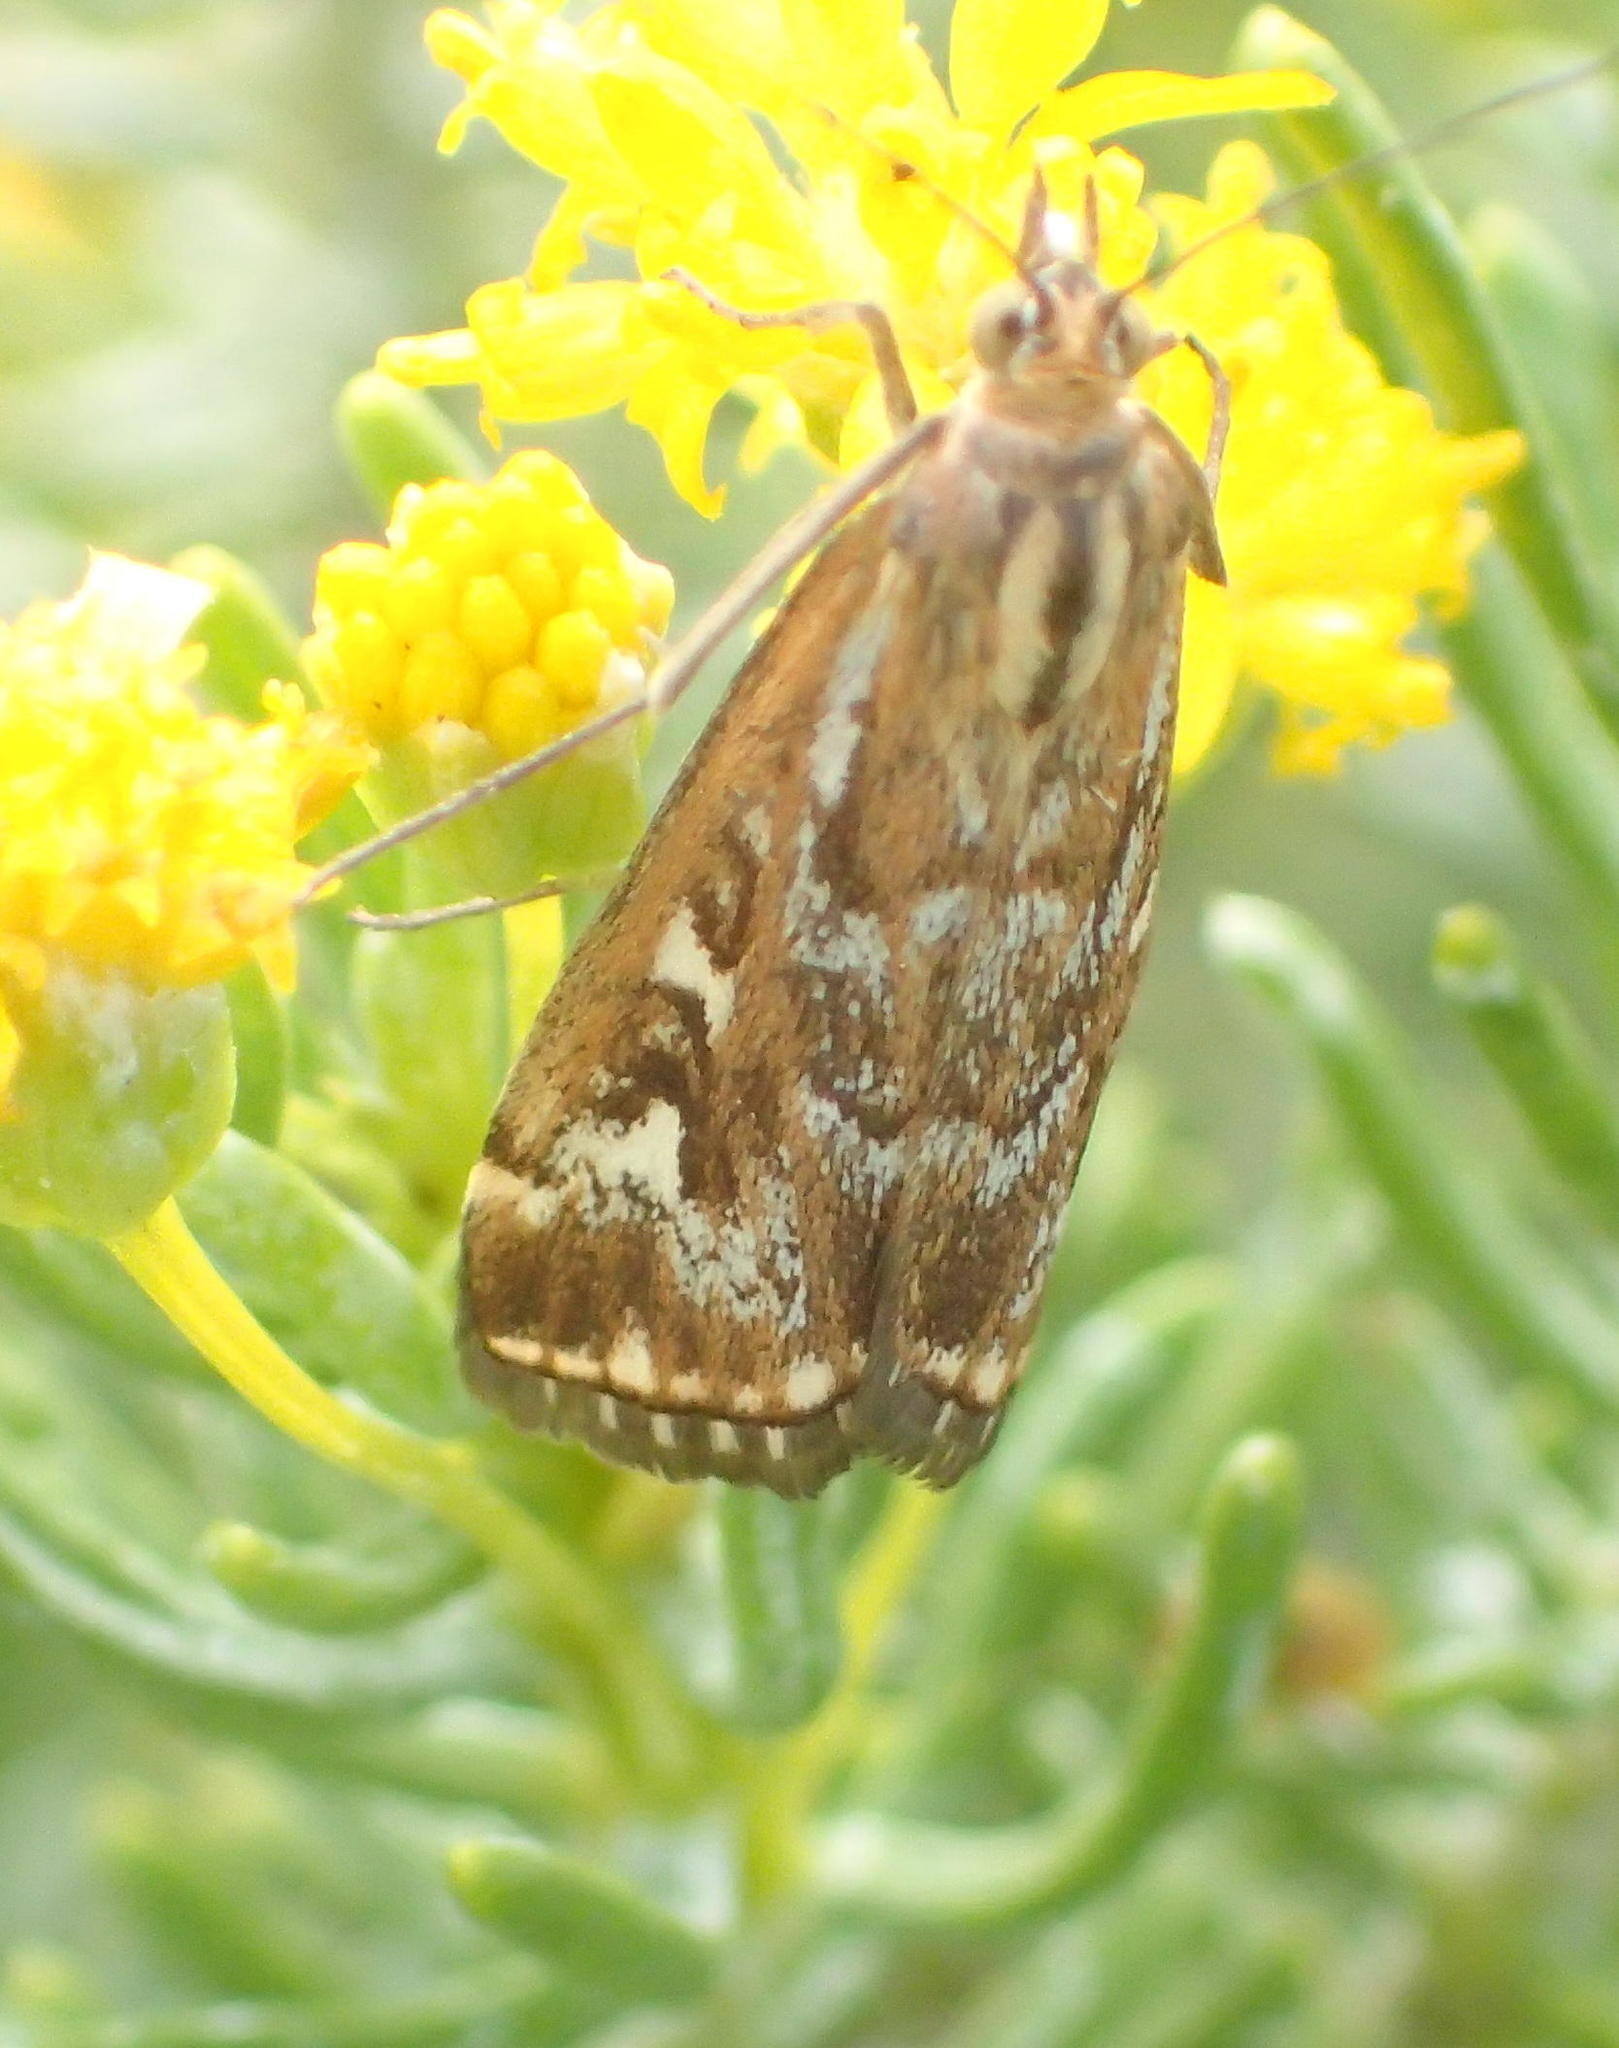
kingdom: Animalia
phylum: Arthropoda
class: Insecta
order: Lepidoptera
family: Crambidae
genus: Loxostege
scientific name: Loxostege frustalis
